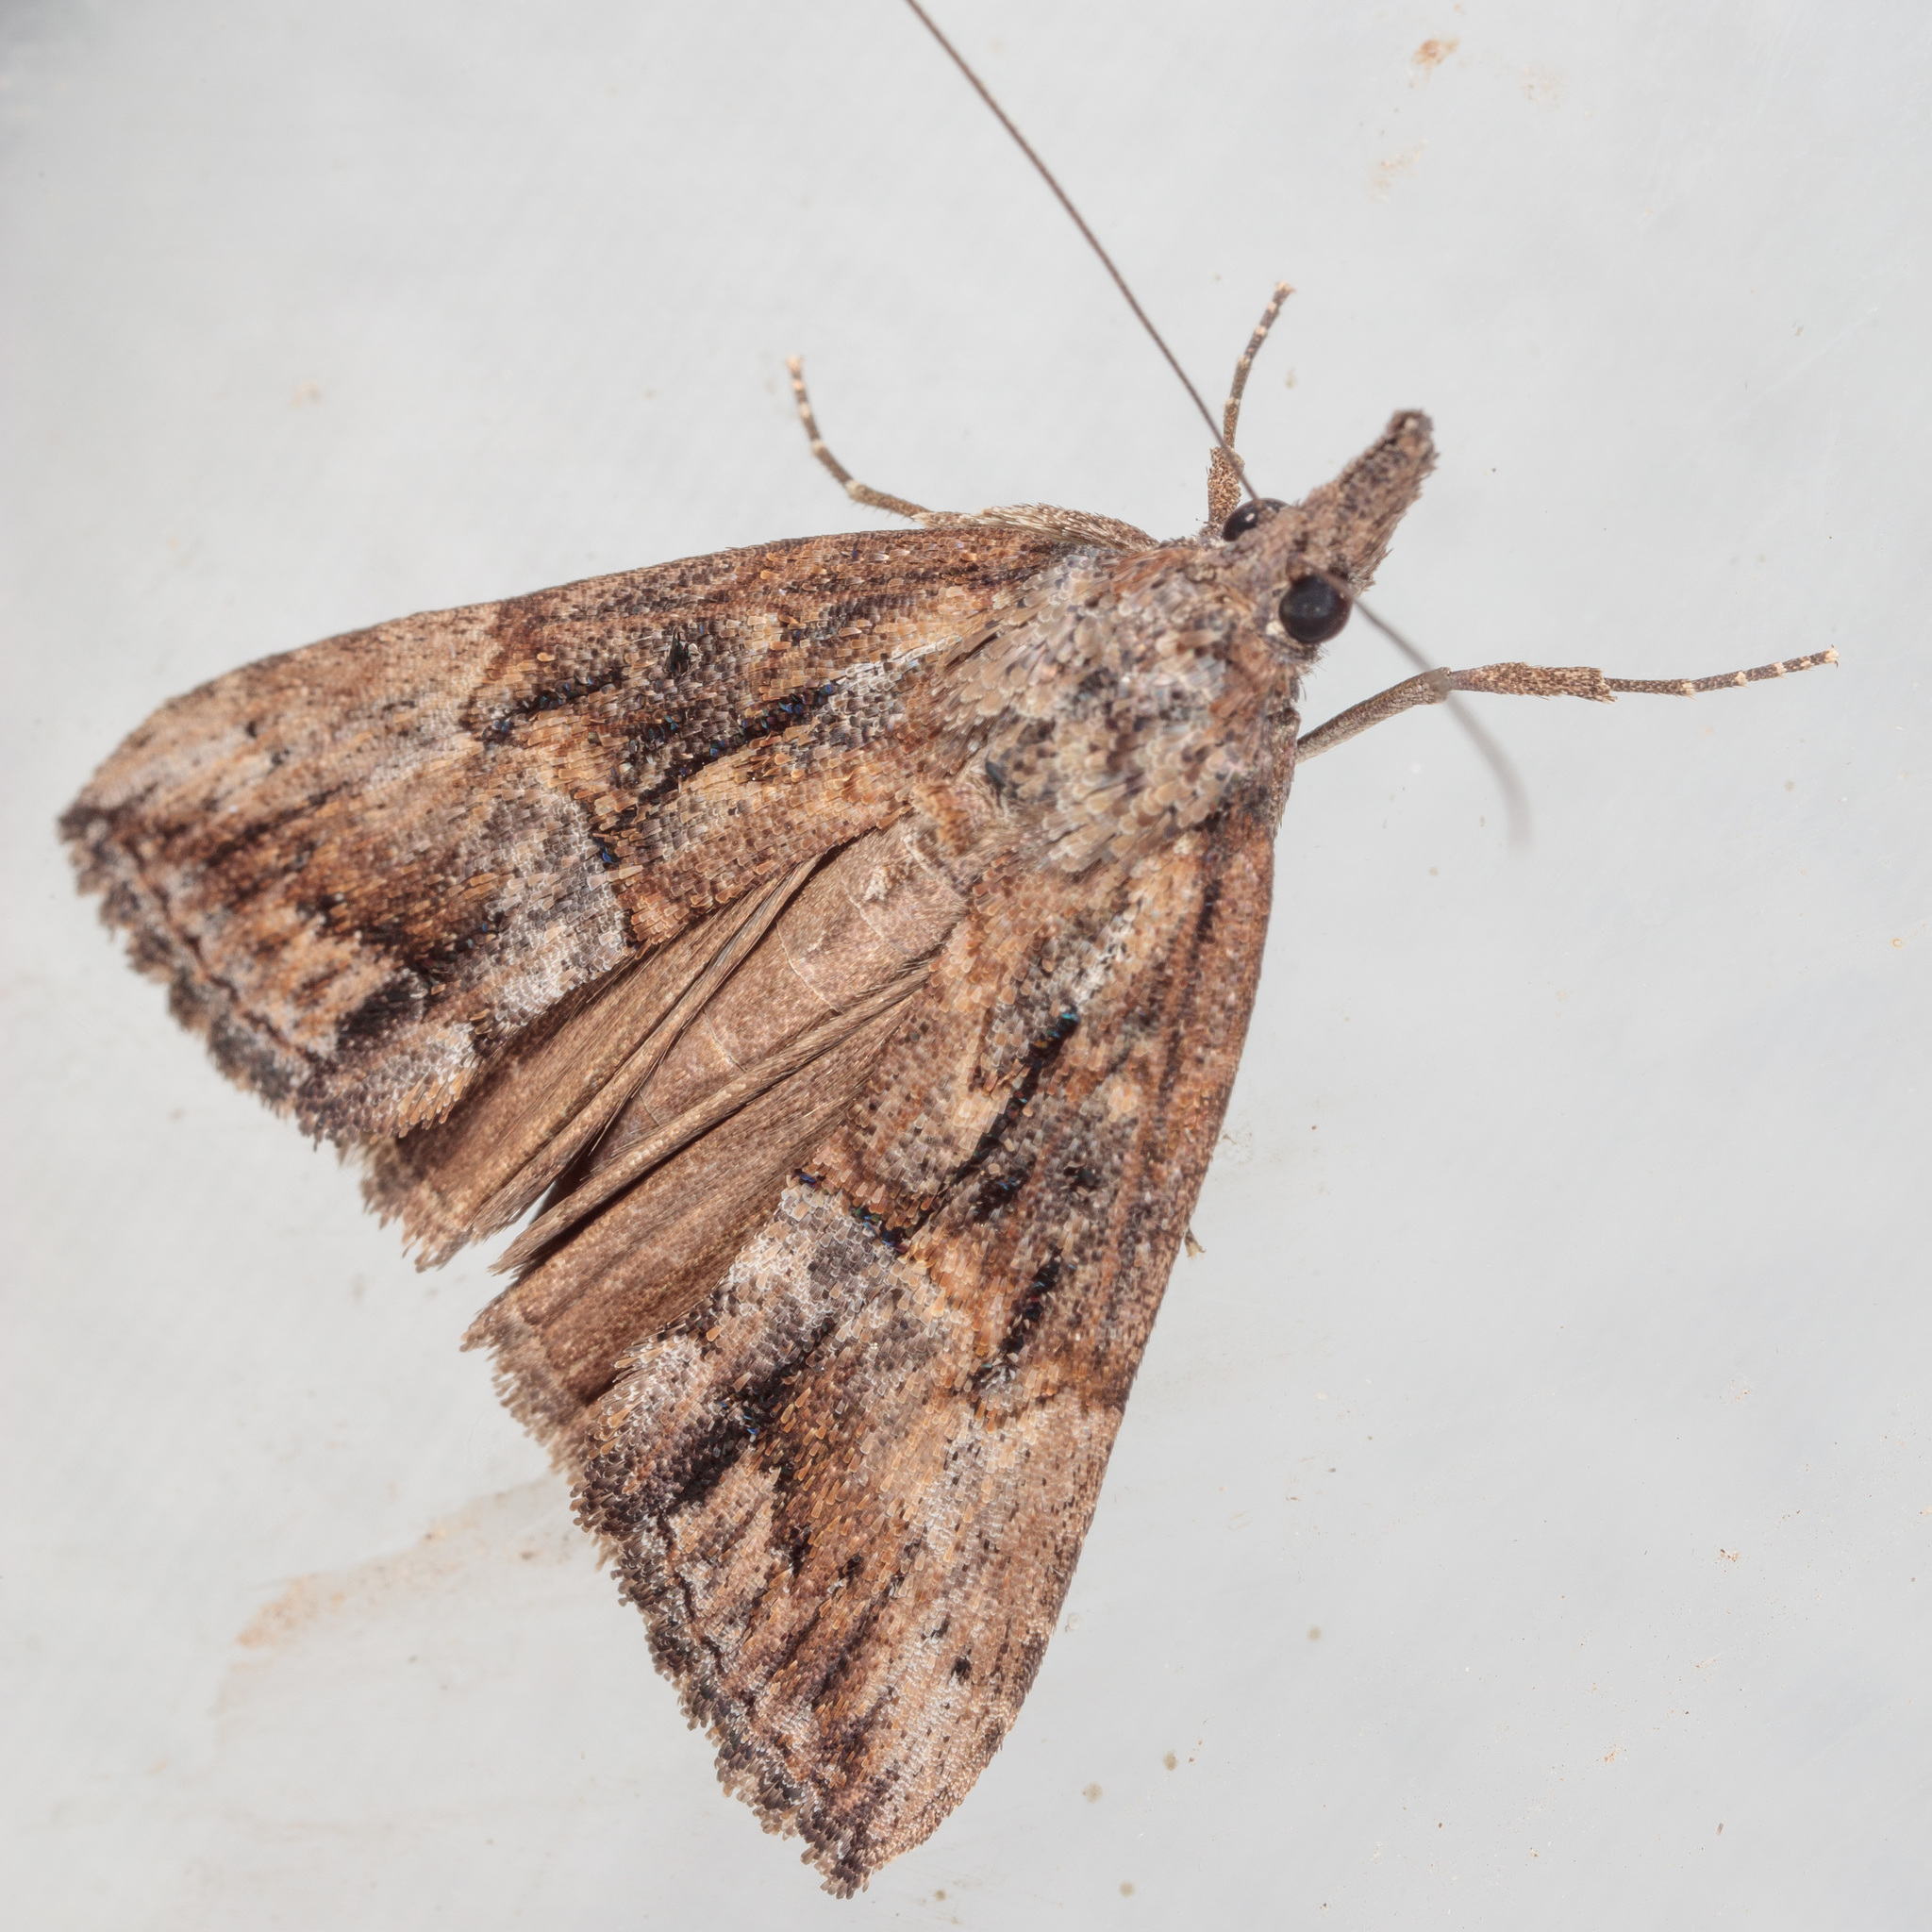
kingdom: Animalia
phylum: Arthropoda
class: Insecta
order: Lepidoptera
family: Erebidae
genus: Hypena
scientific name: Hypena scabra
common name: Green cloverworm
